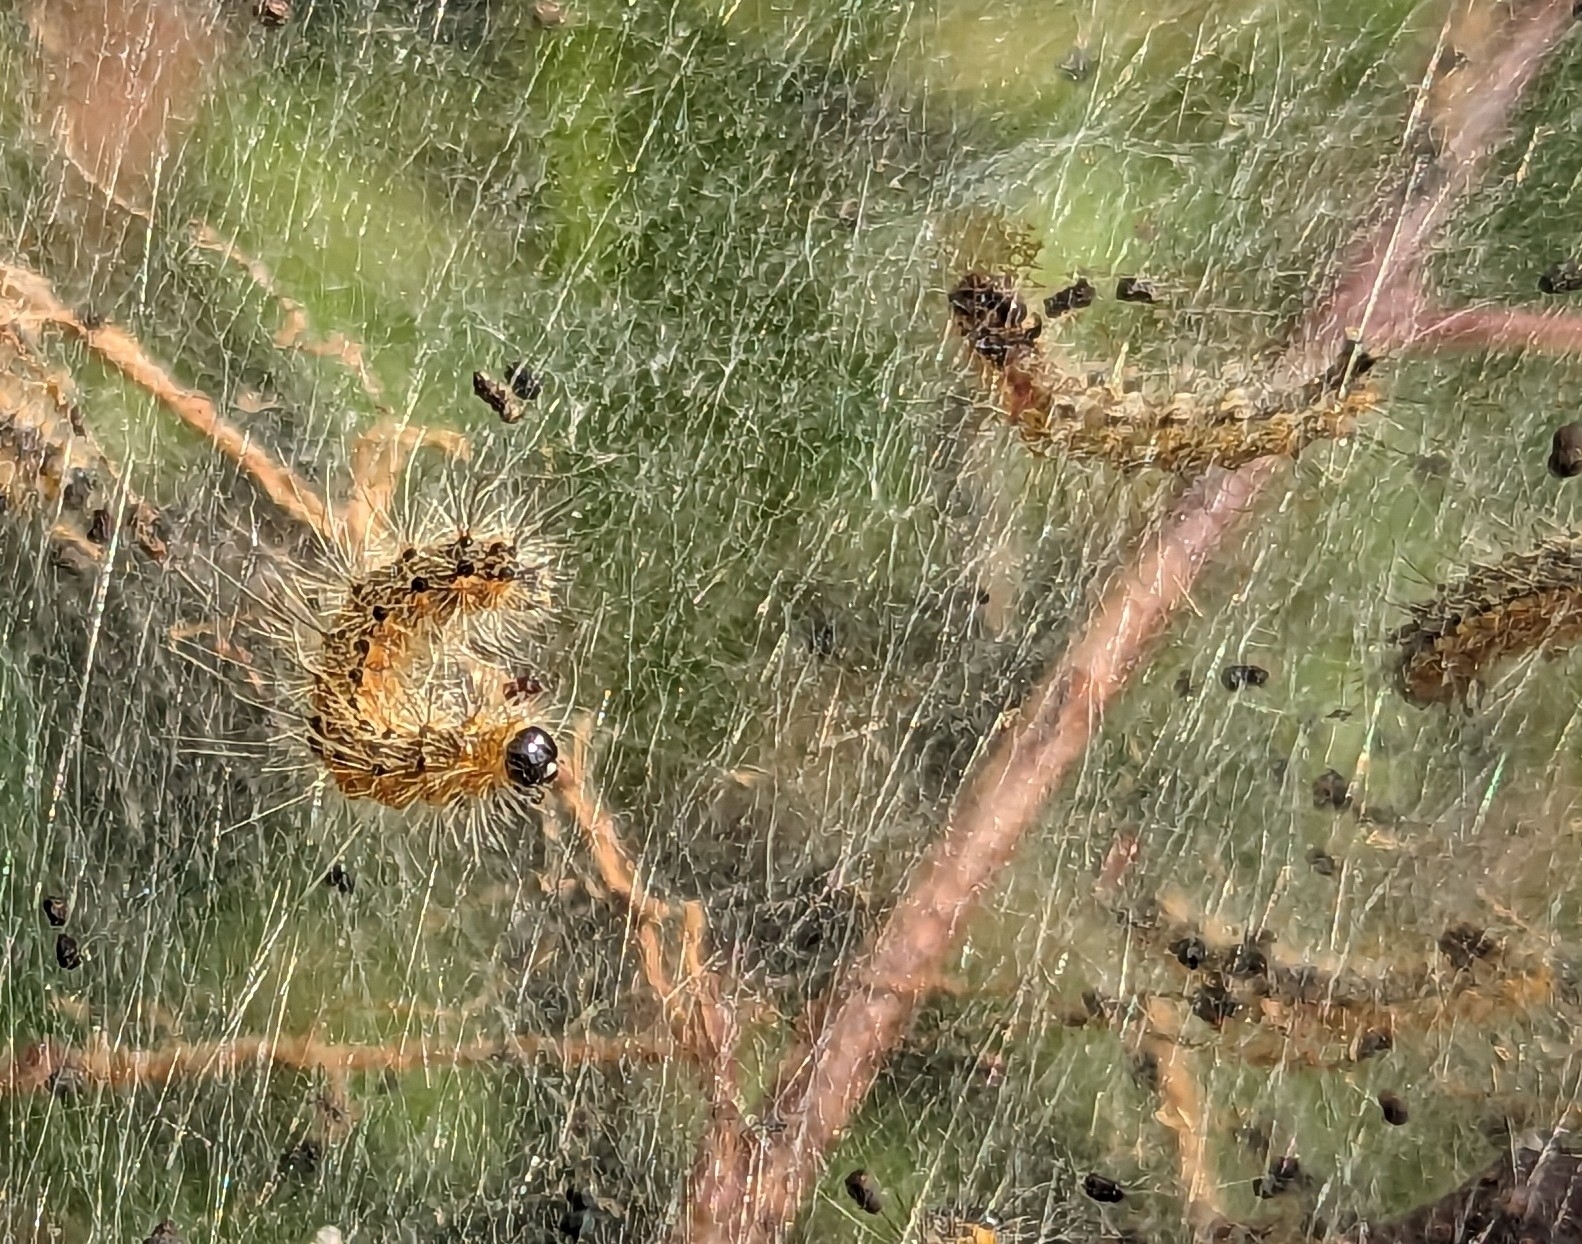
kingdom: Animalia
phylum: Arthropoda
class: Insecta
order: Lepidoptera
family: Erebidae
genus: Lymantria
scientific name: Lymantria dispar
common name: Gypsy moth
